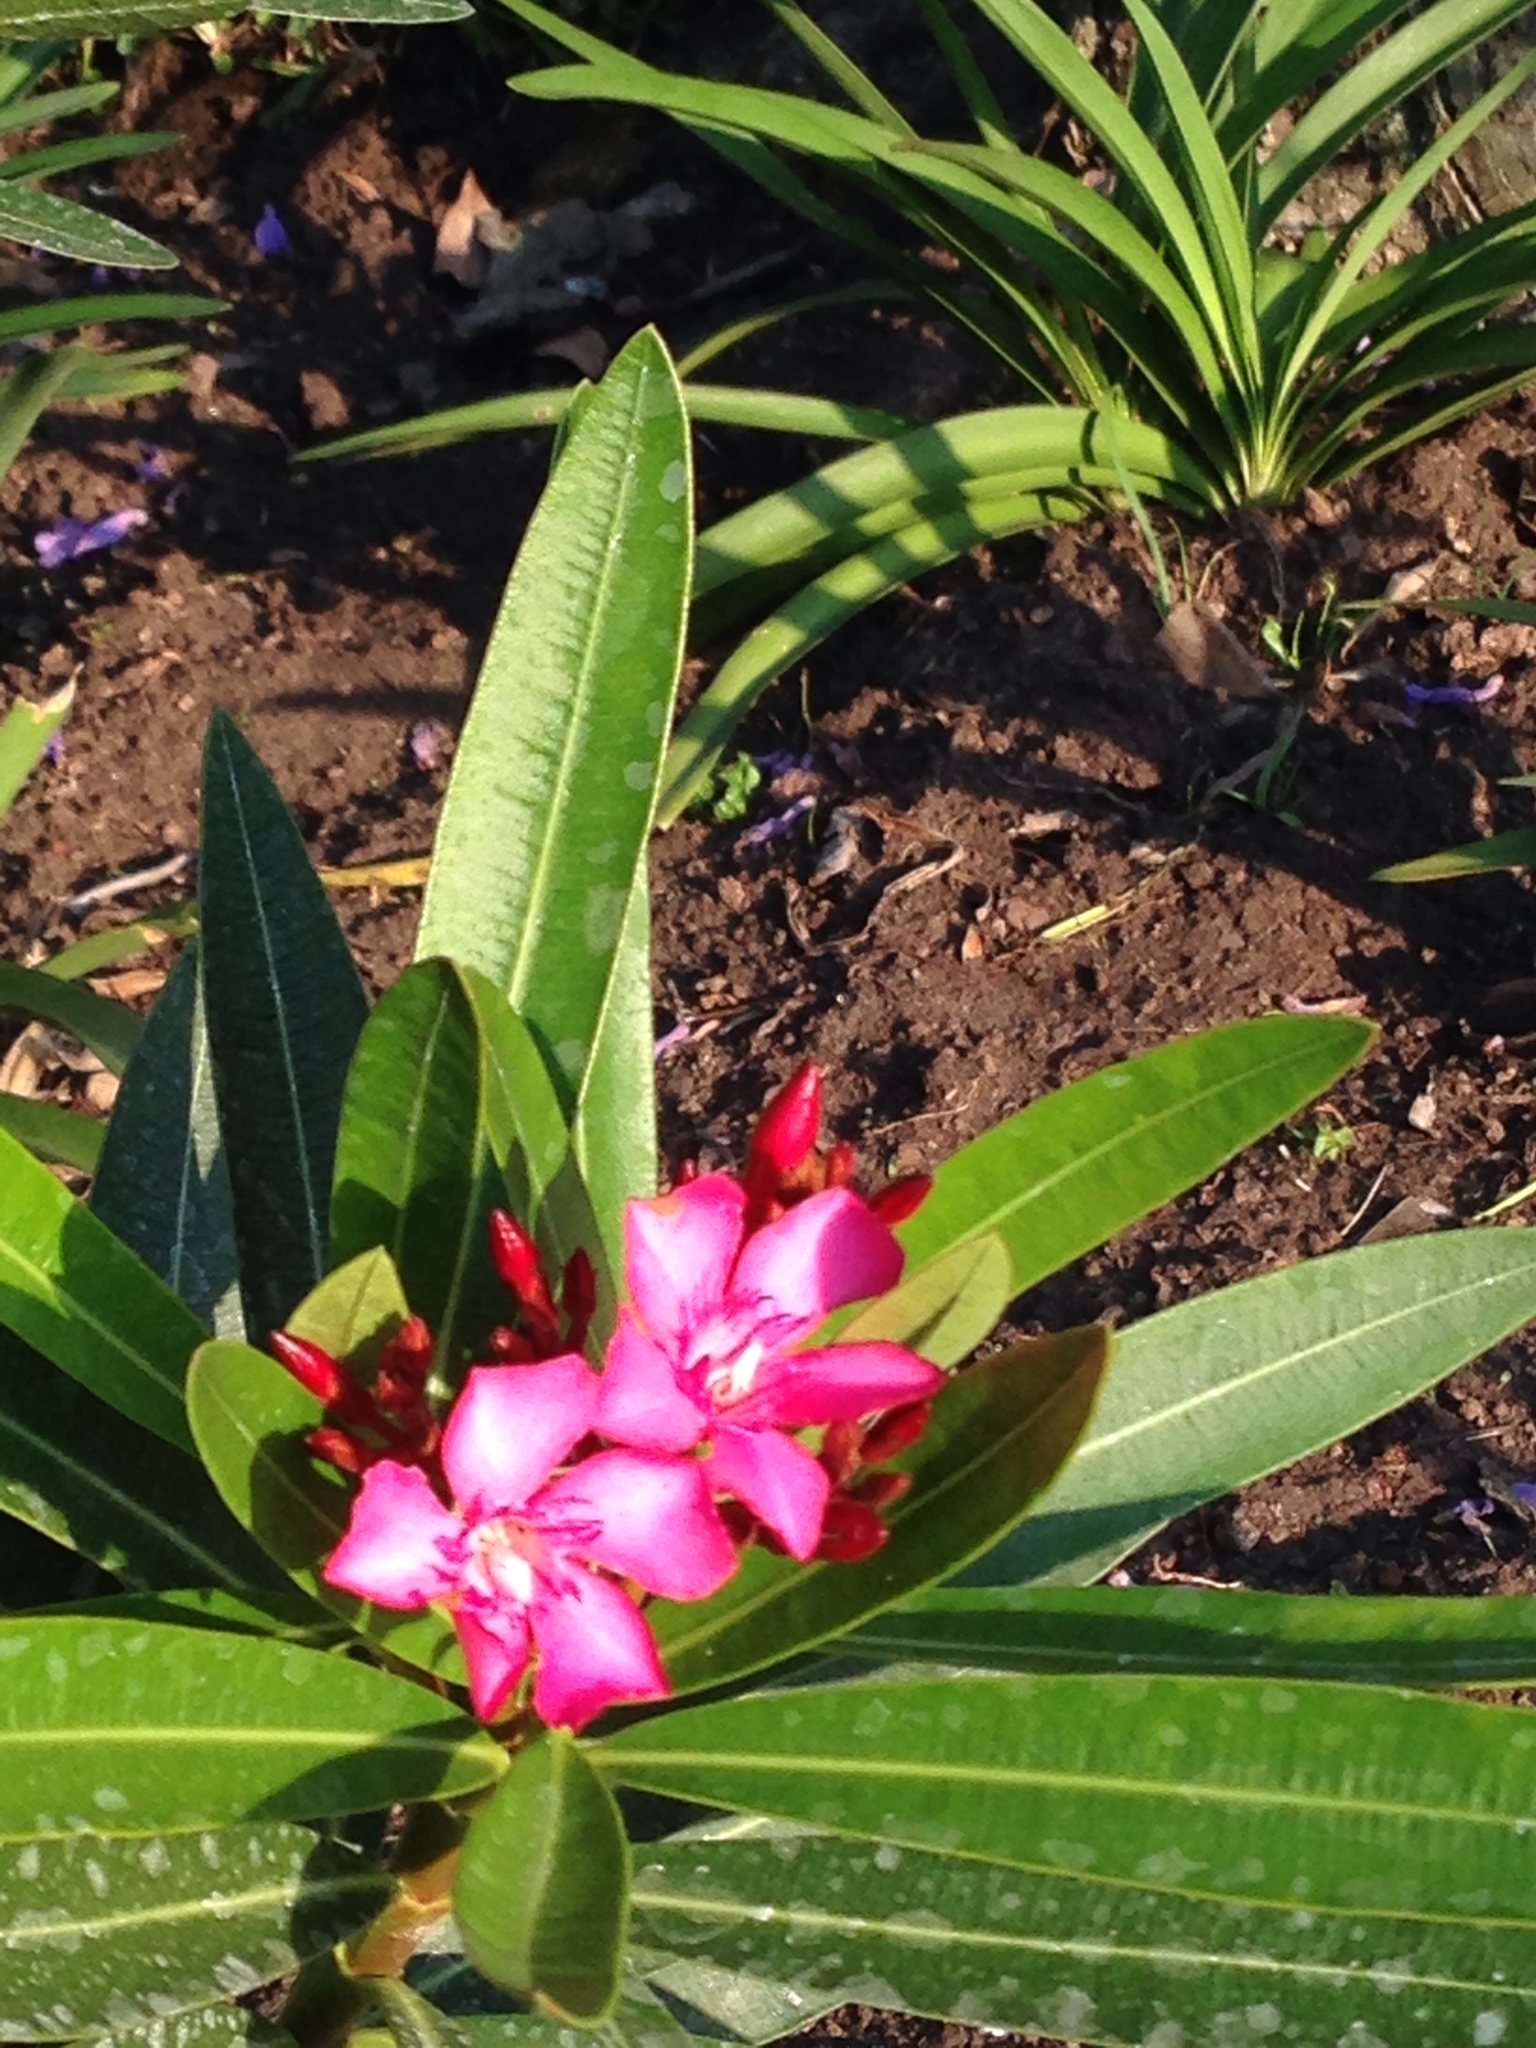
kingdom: Plantae
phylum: Tracheophyta
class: Magnoliopsida
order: Gentianales
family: Apocynaceae
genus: Nerium
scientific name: Nerium oleander
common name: Oleander
